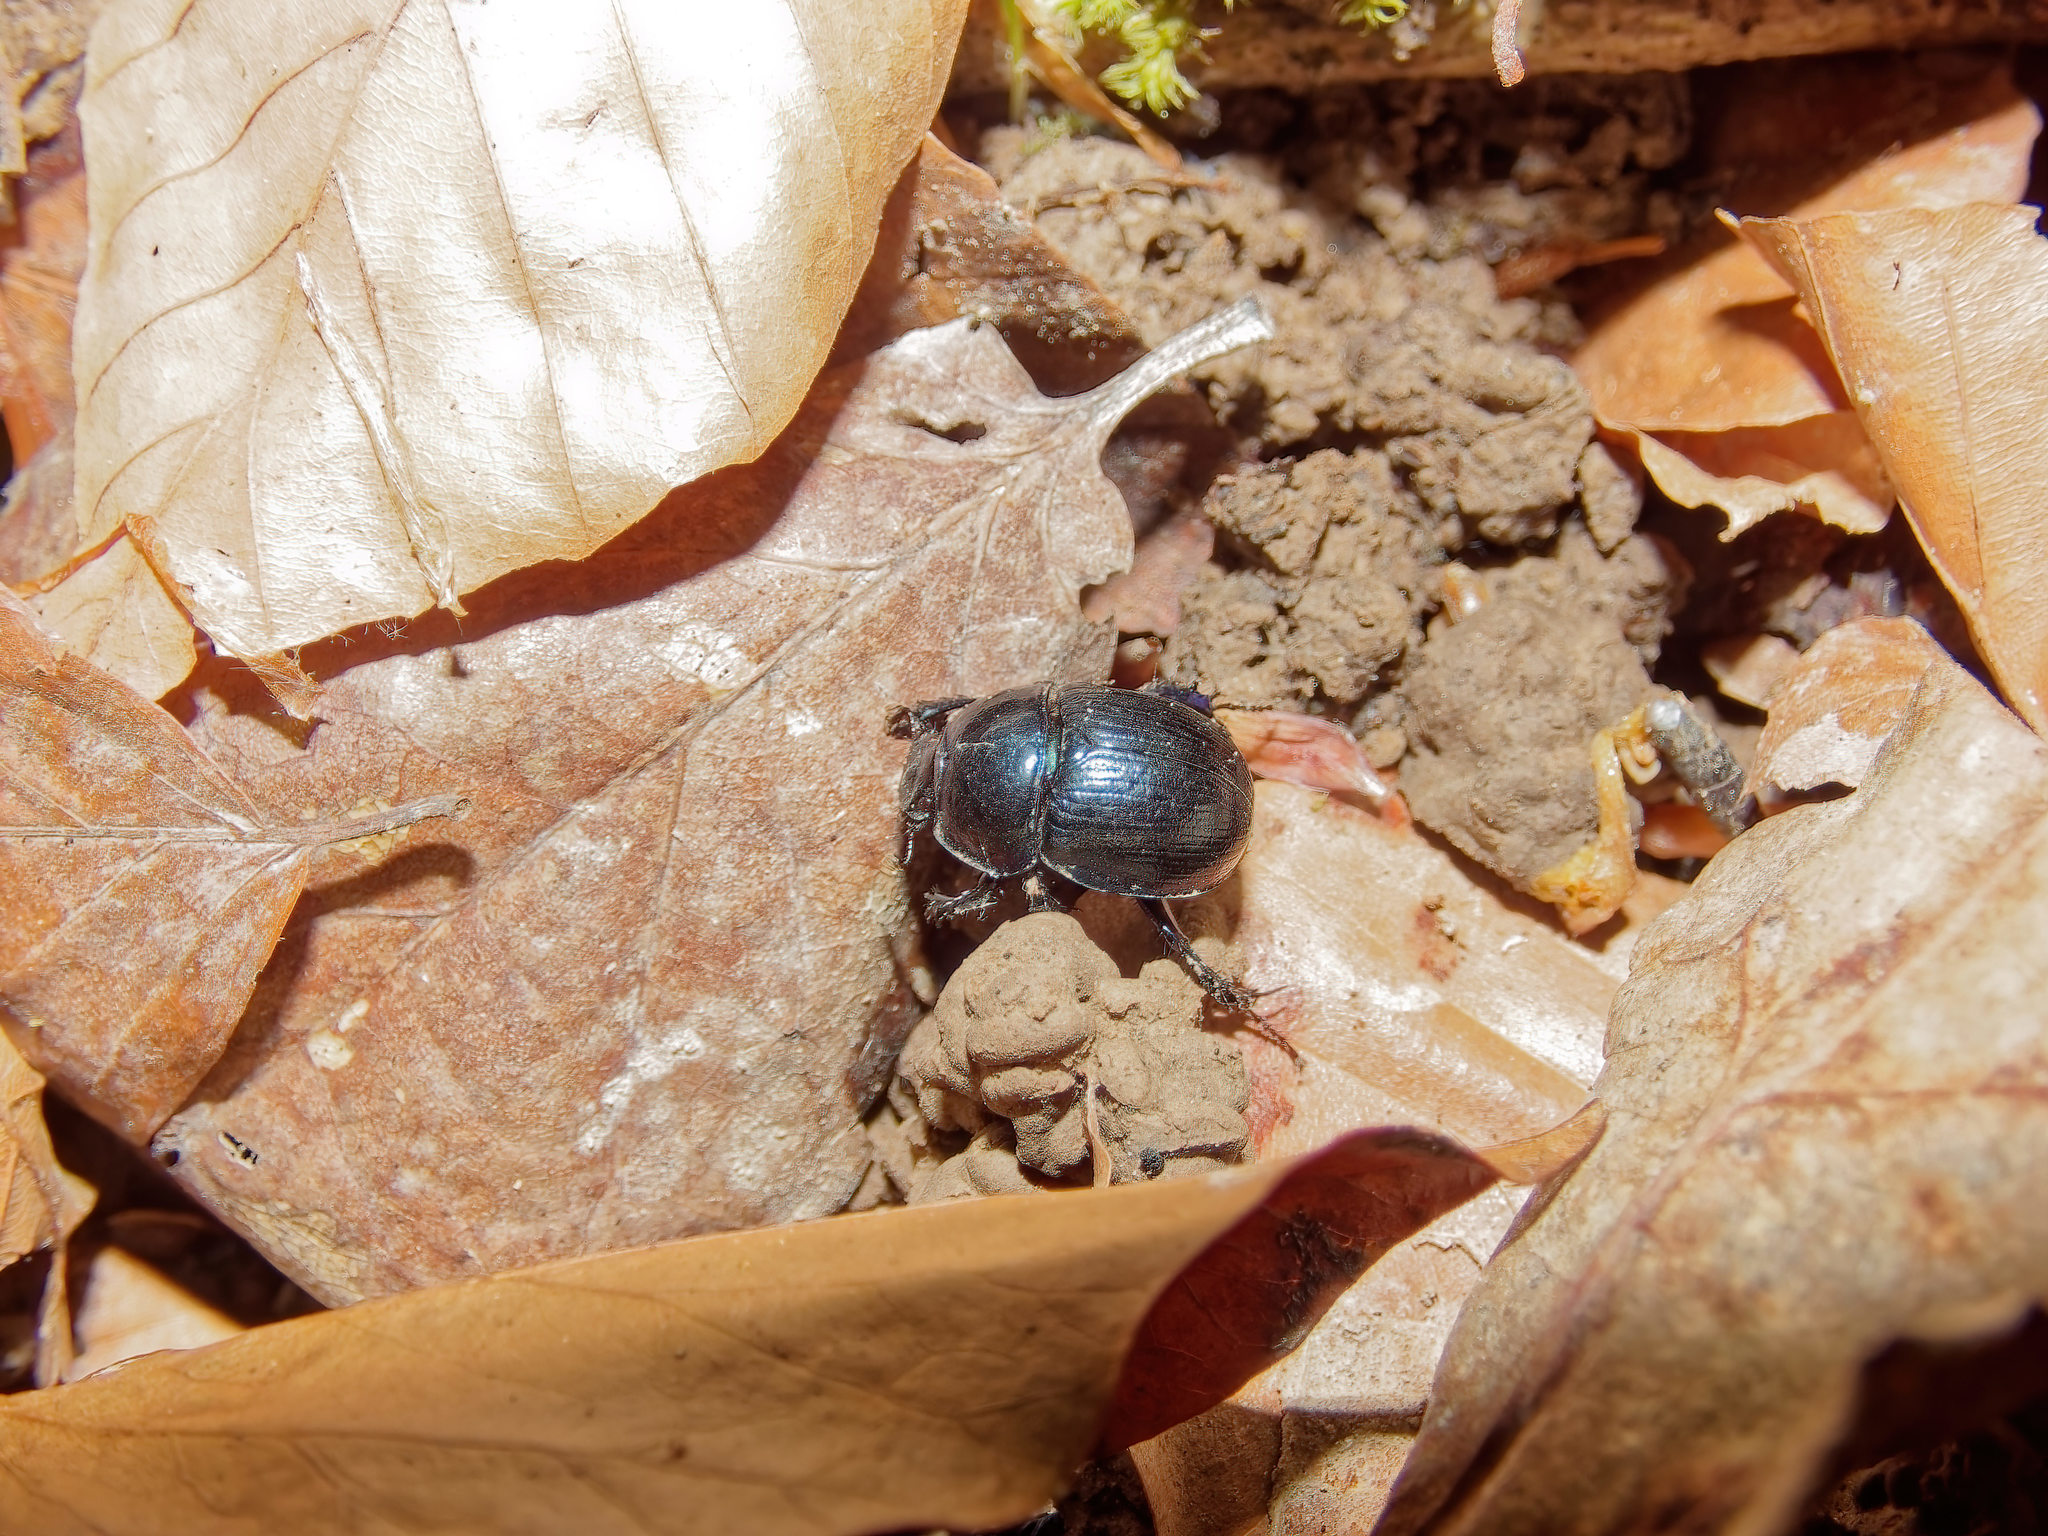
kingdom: Animalia
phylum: Arthropoda
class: Insecta
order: Coleoptera
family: Geotrupidae
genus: Anoplotrupes
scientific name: Anoplotrupes stercorosus
